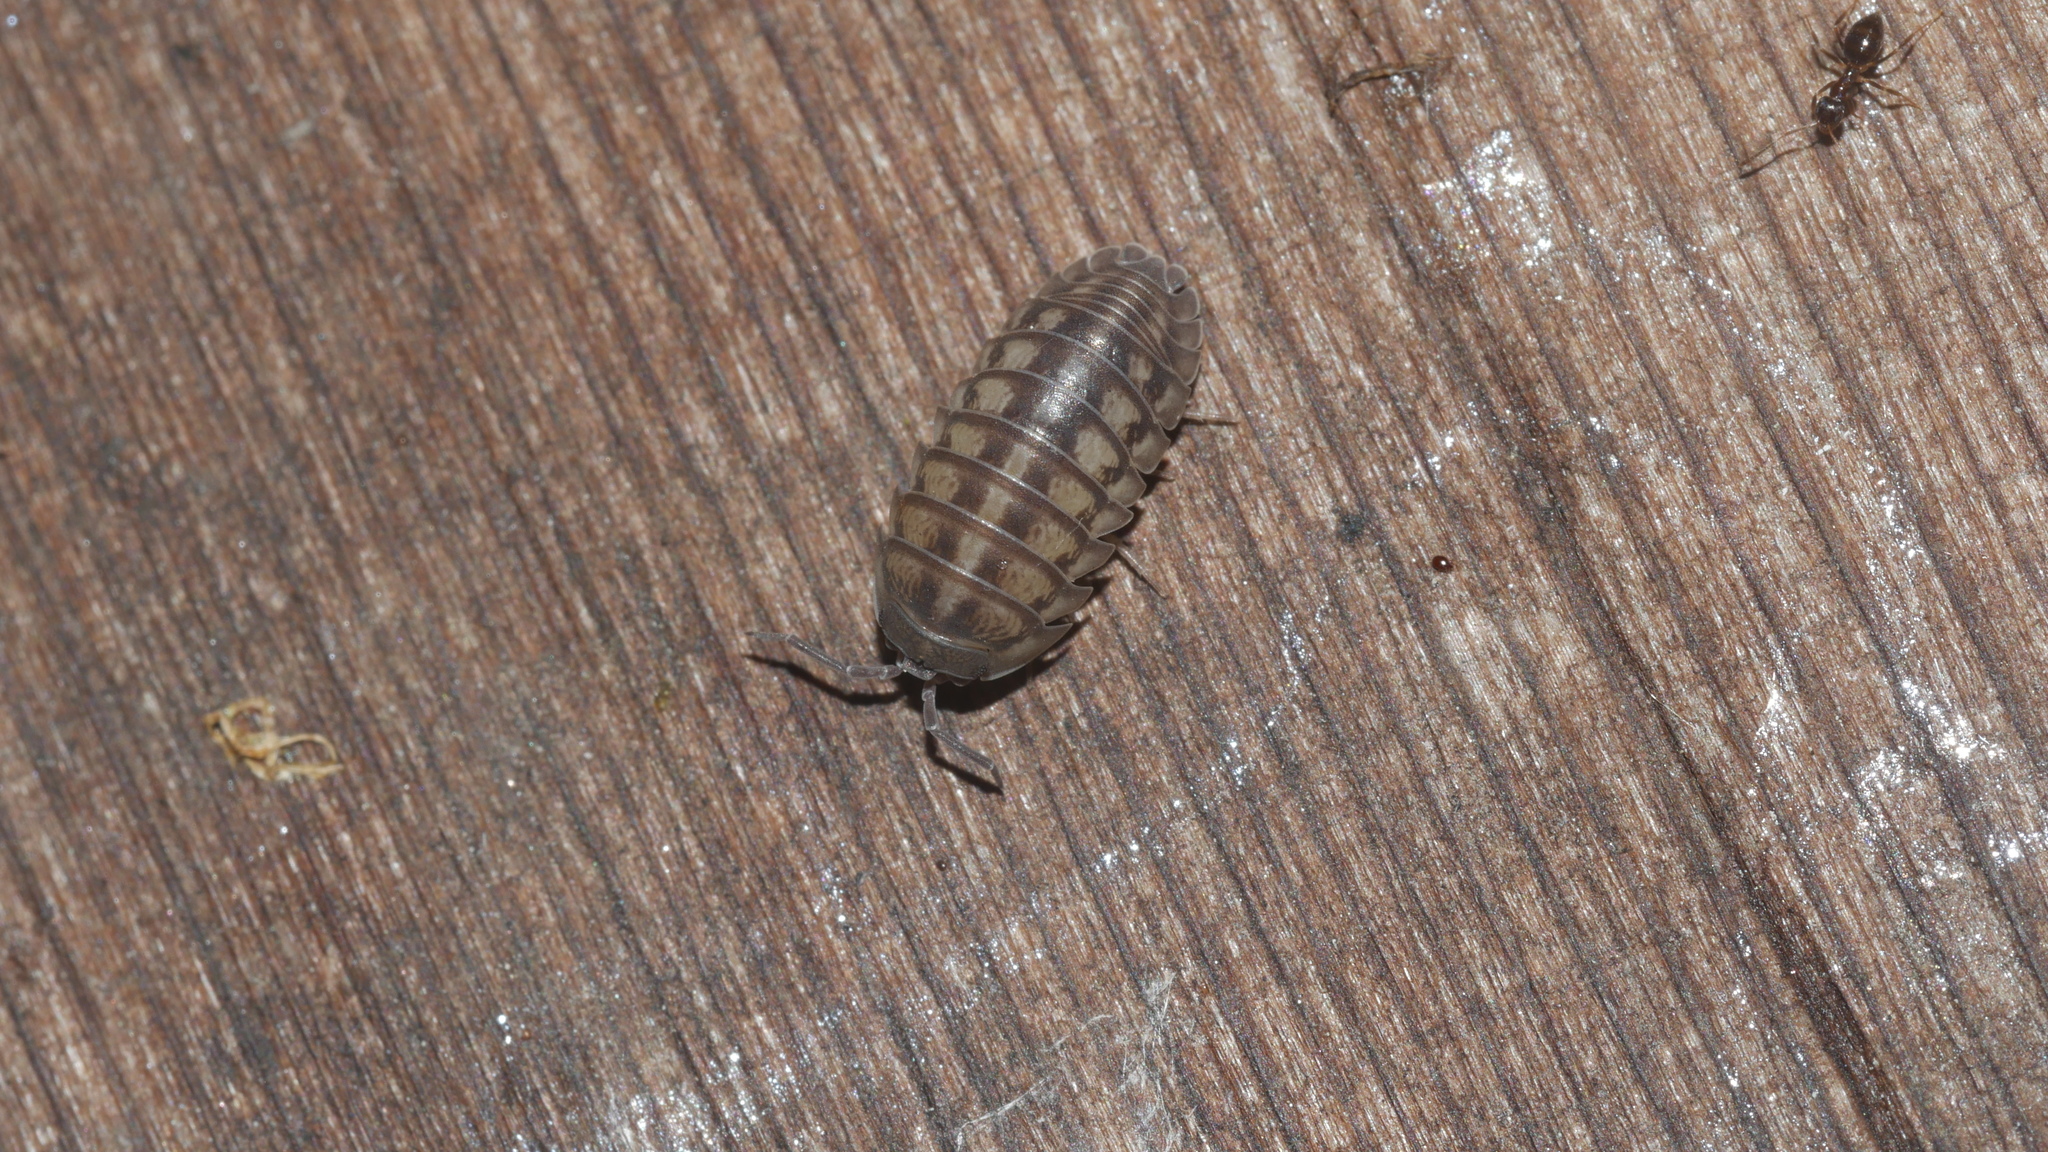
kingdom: Animalia
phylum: Arthropoda
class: Malacostraca
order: Isopoda
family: Armadillidiidae
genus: Armadillidium
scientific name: Armadillidium nasatum
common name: Isopod
